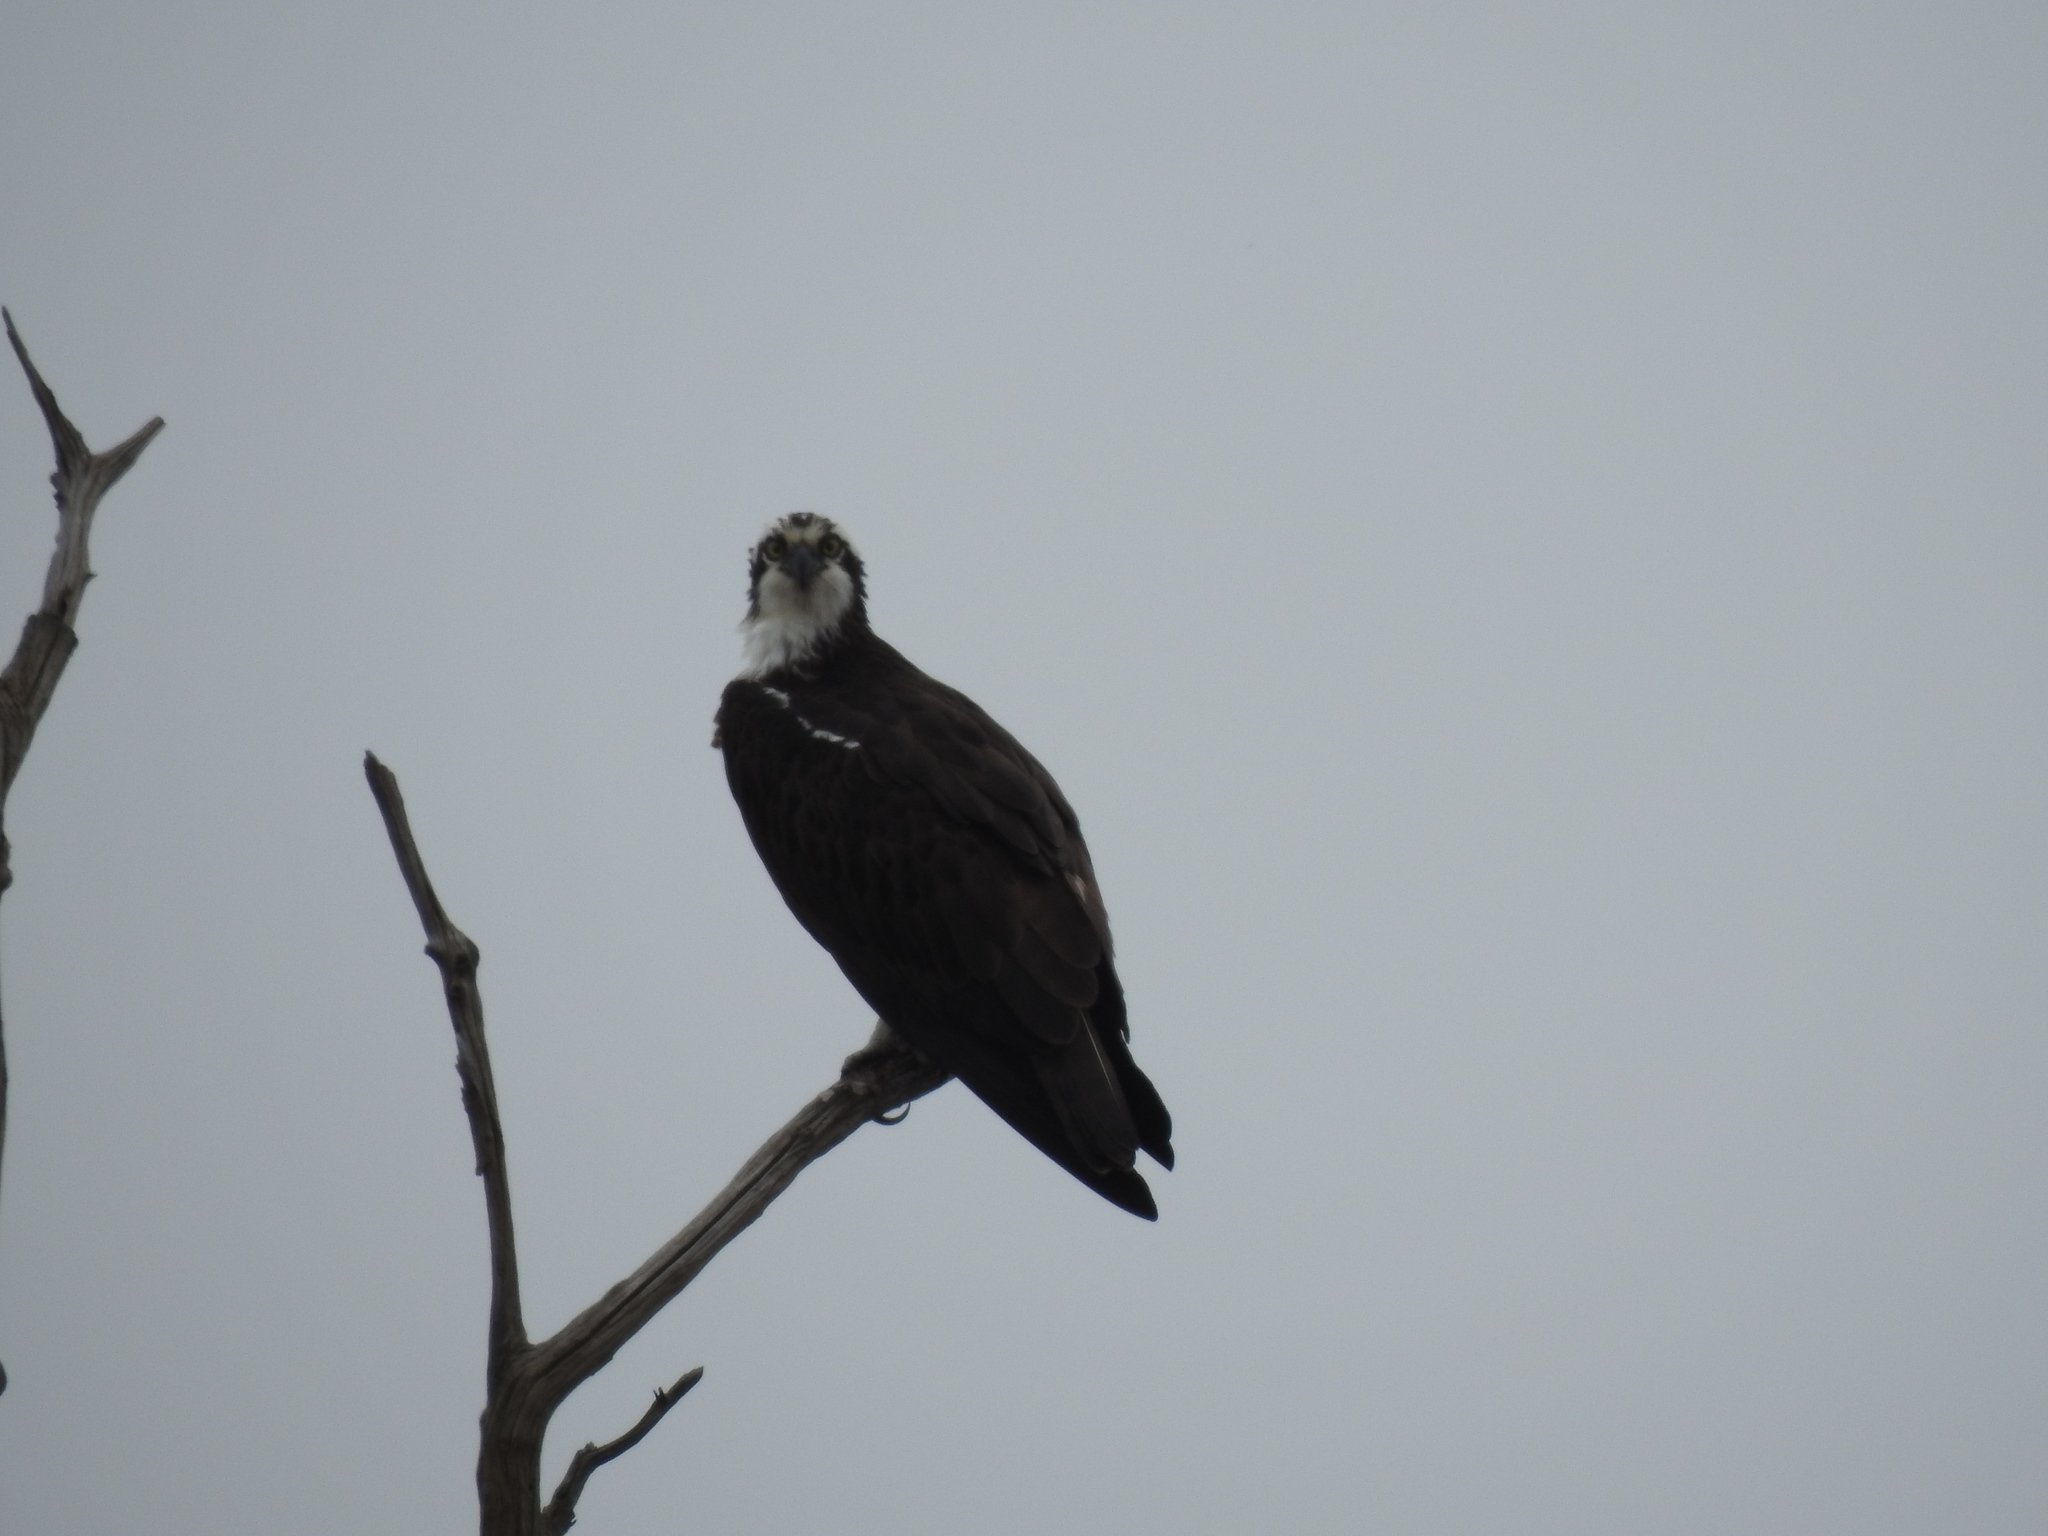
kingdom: Animalia
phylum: Chordata
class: Aves
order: Accipitriformes
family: Pandionidae
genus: Pandion
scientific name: Pandion haliaetus
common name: Osprey
